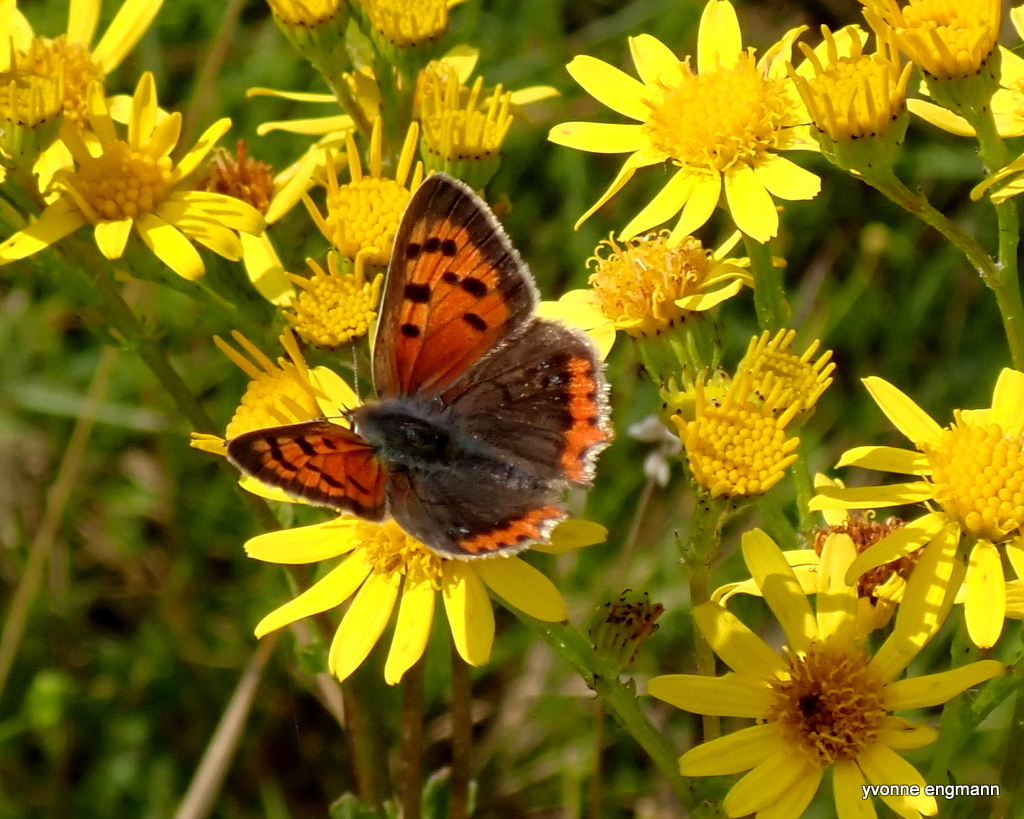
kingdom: Animalia
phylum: Arthropoda
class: Insecta
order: Lepidoptera
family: Lycaenidae
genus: Lycaena
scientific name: Lycaena phlaeas
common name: Small copper
